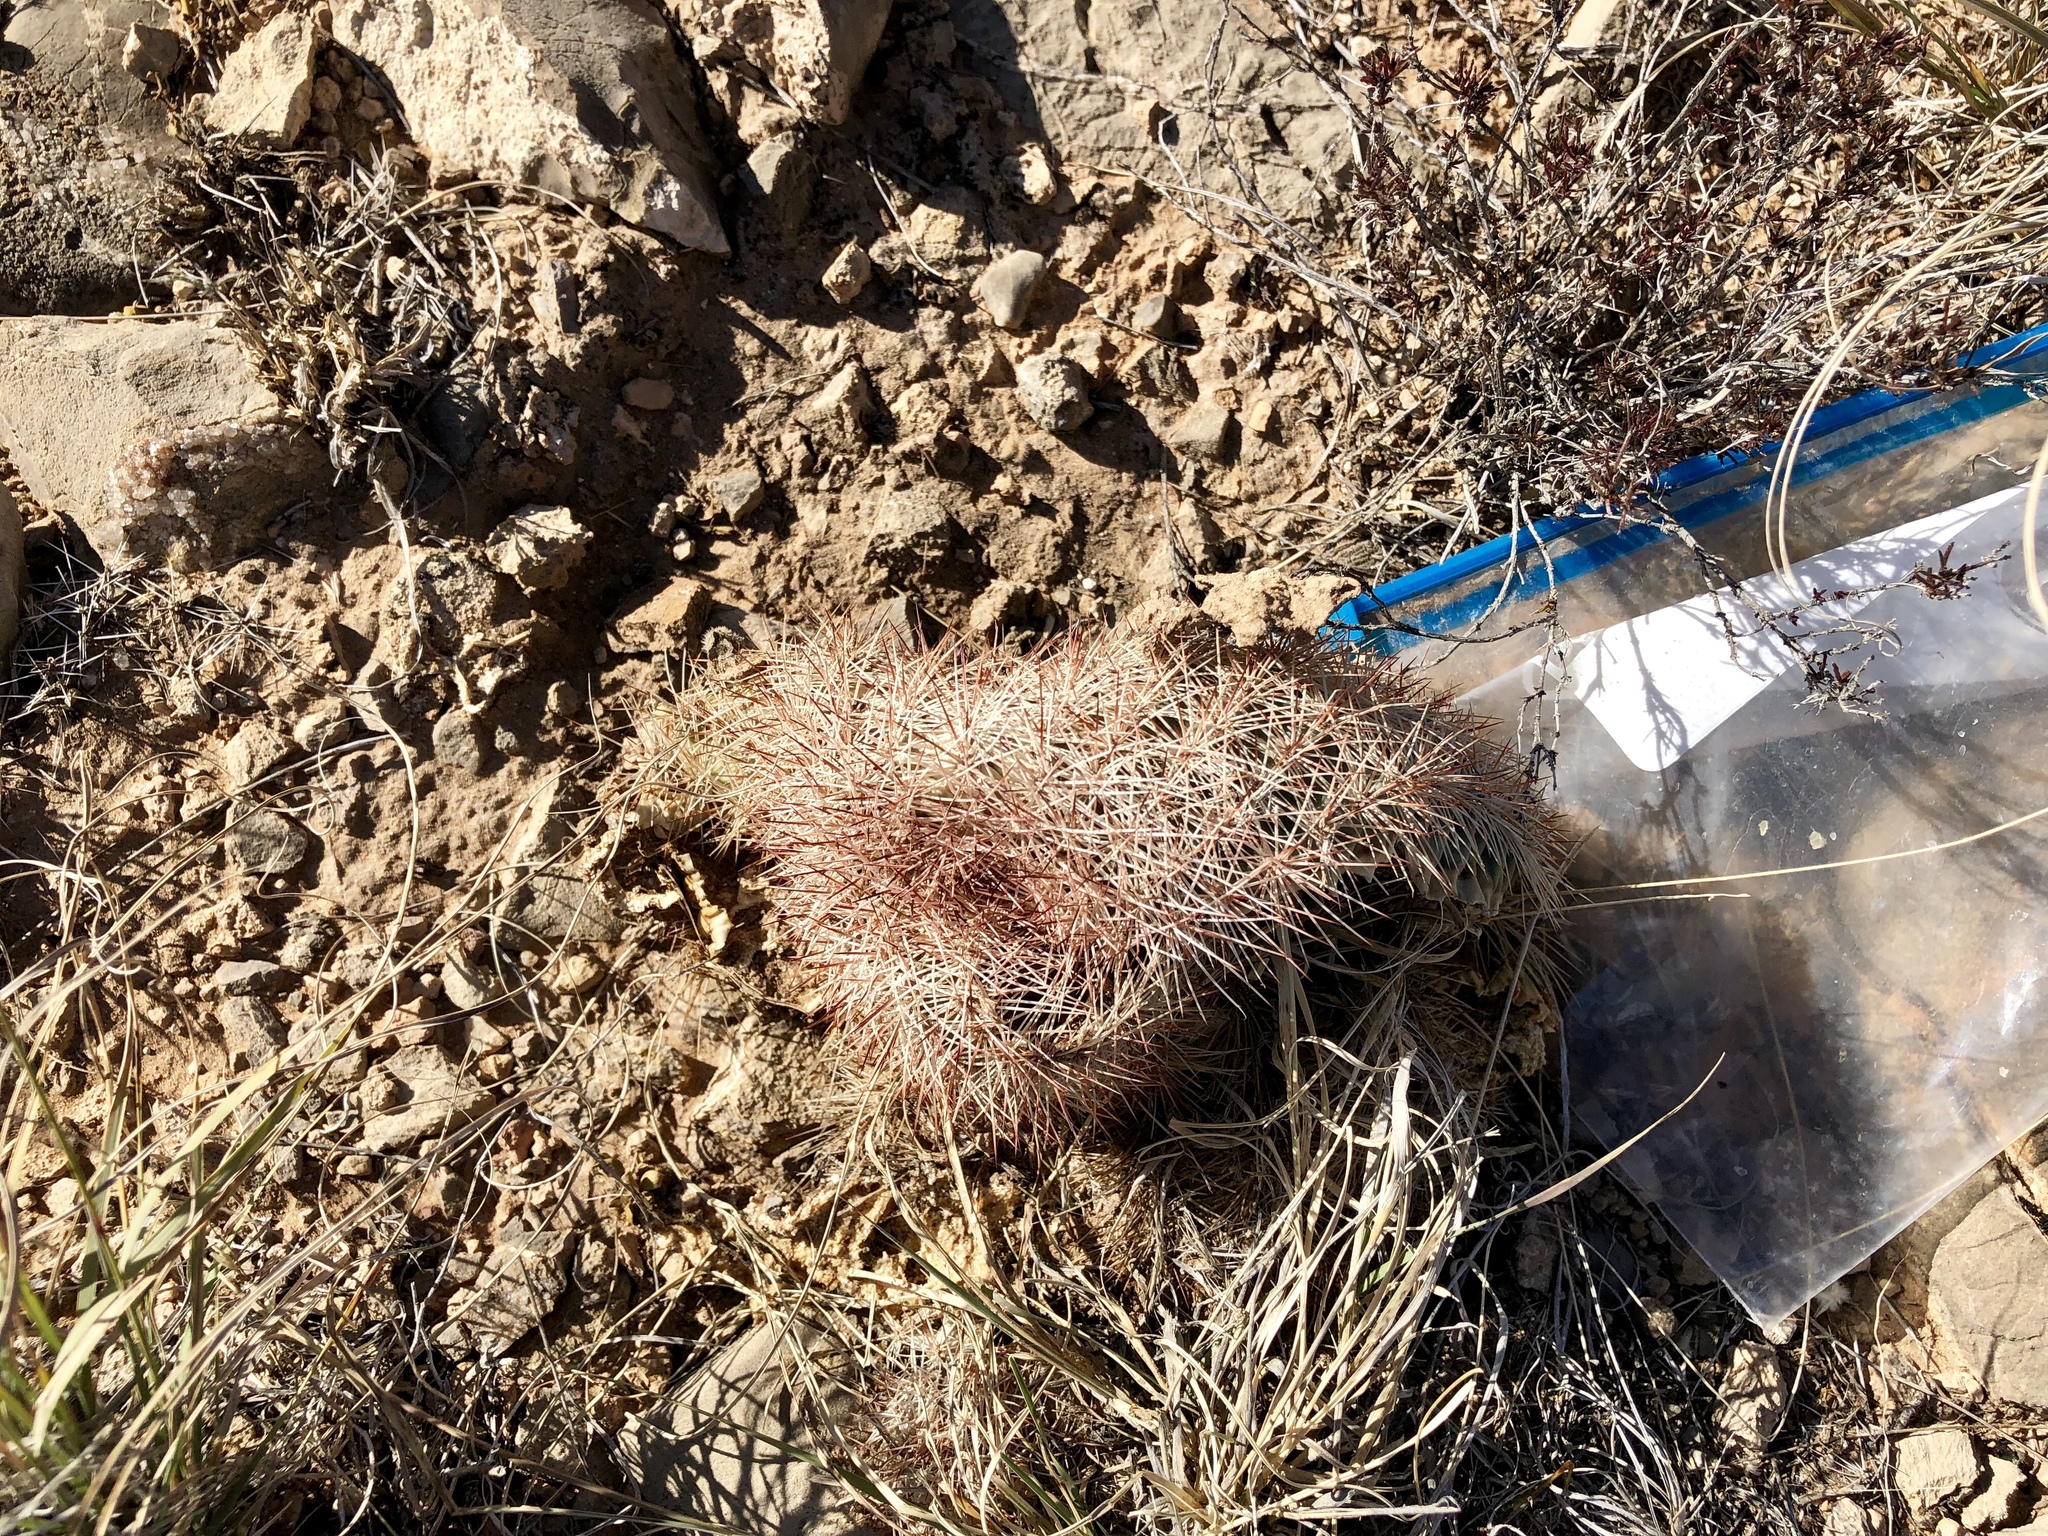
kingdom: Plantae
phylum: Tracheophyta
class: Magnoliopsida
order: Caryophyllales
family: Cactaceae
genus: Pelecyphora
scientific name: Pelecyphora vivipara
